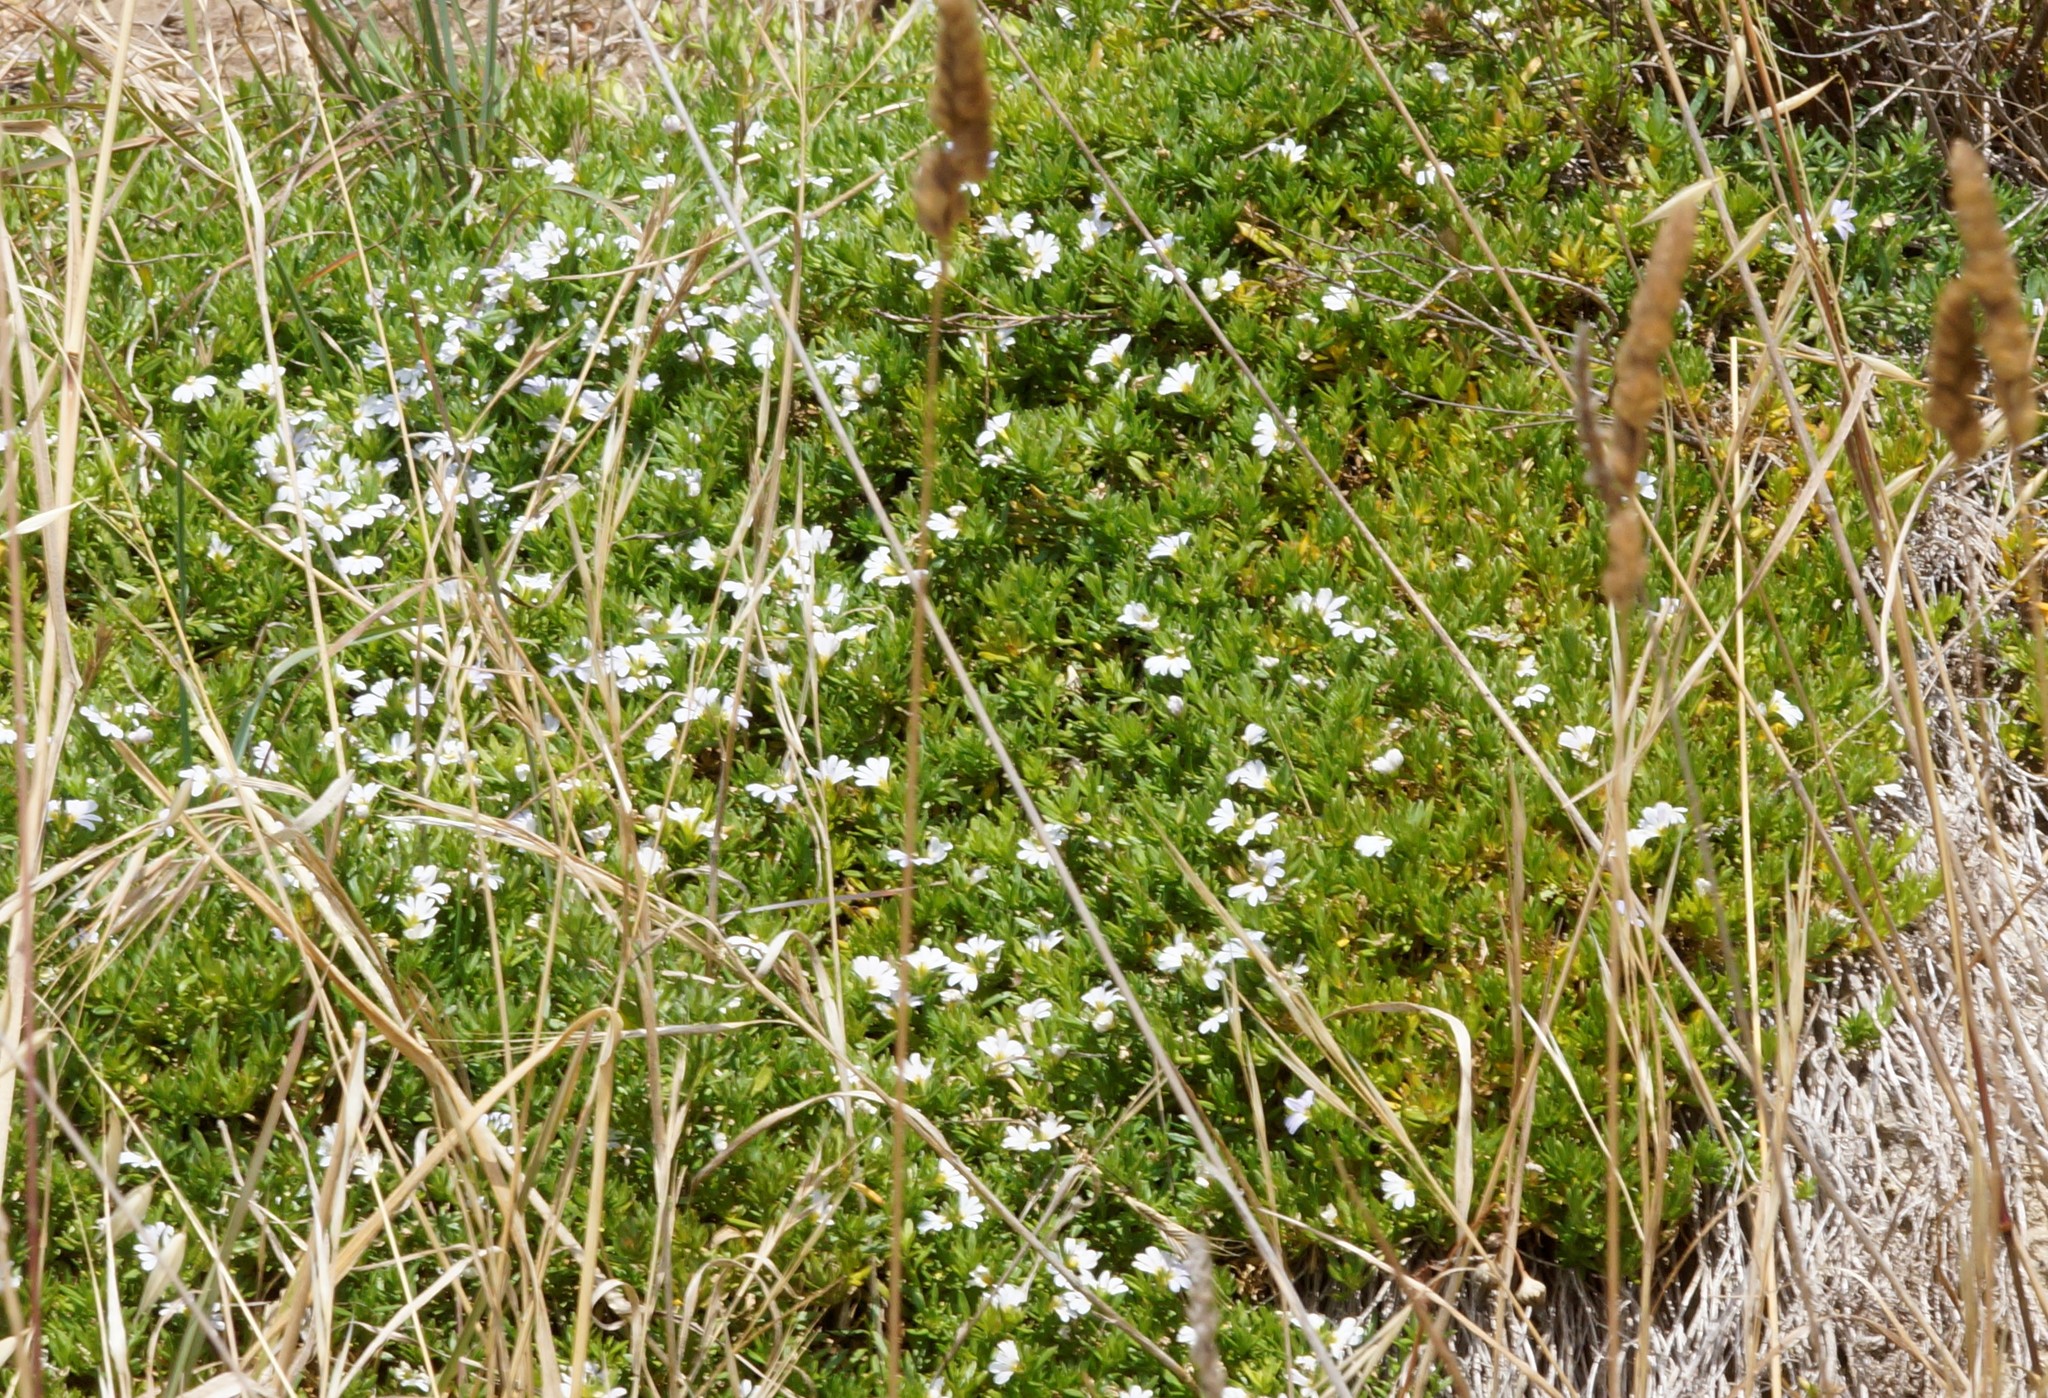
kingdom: Plantae
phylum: Tracheophyta
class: Magnoliopsida
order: Asterales
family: Goodeniaceae
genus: Scaevola
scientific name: Scaevola albida
